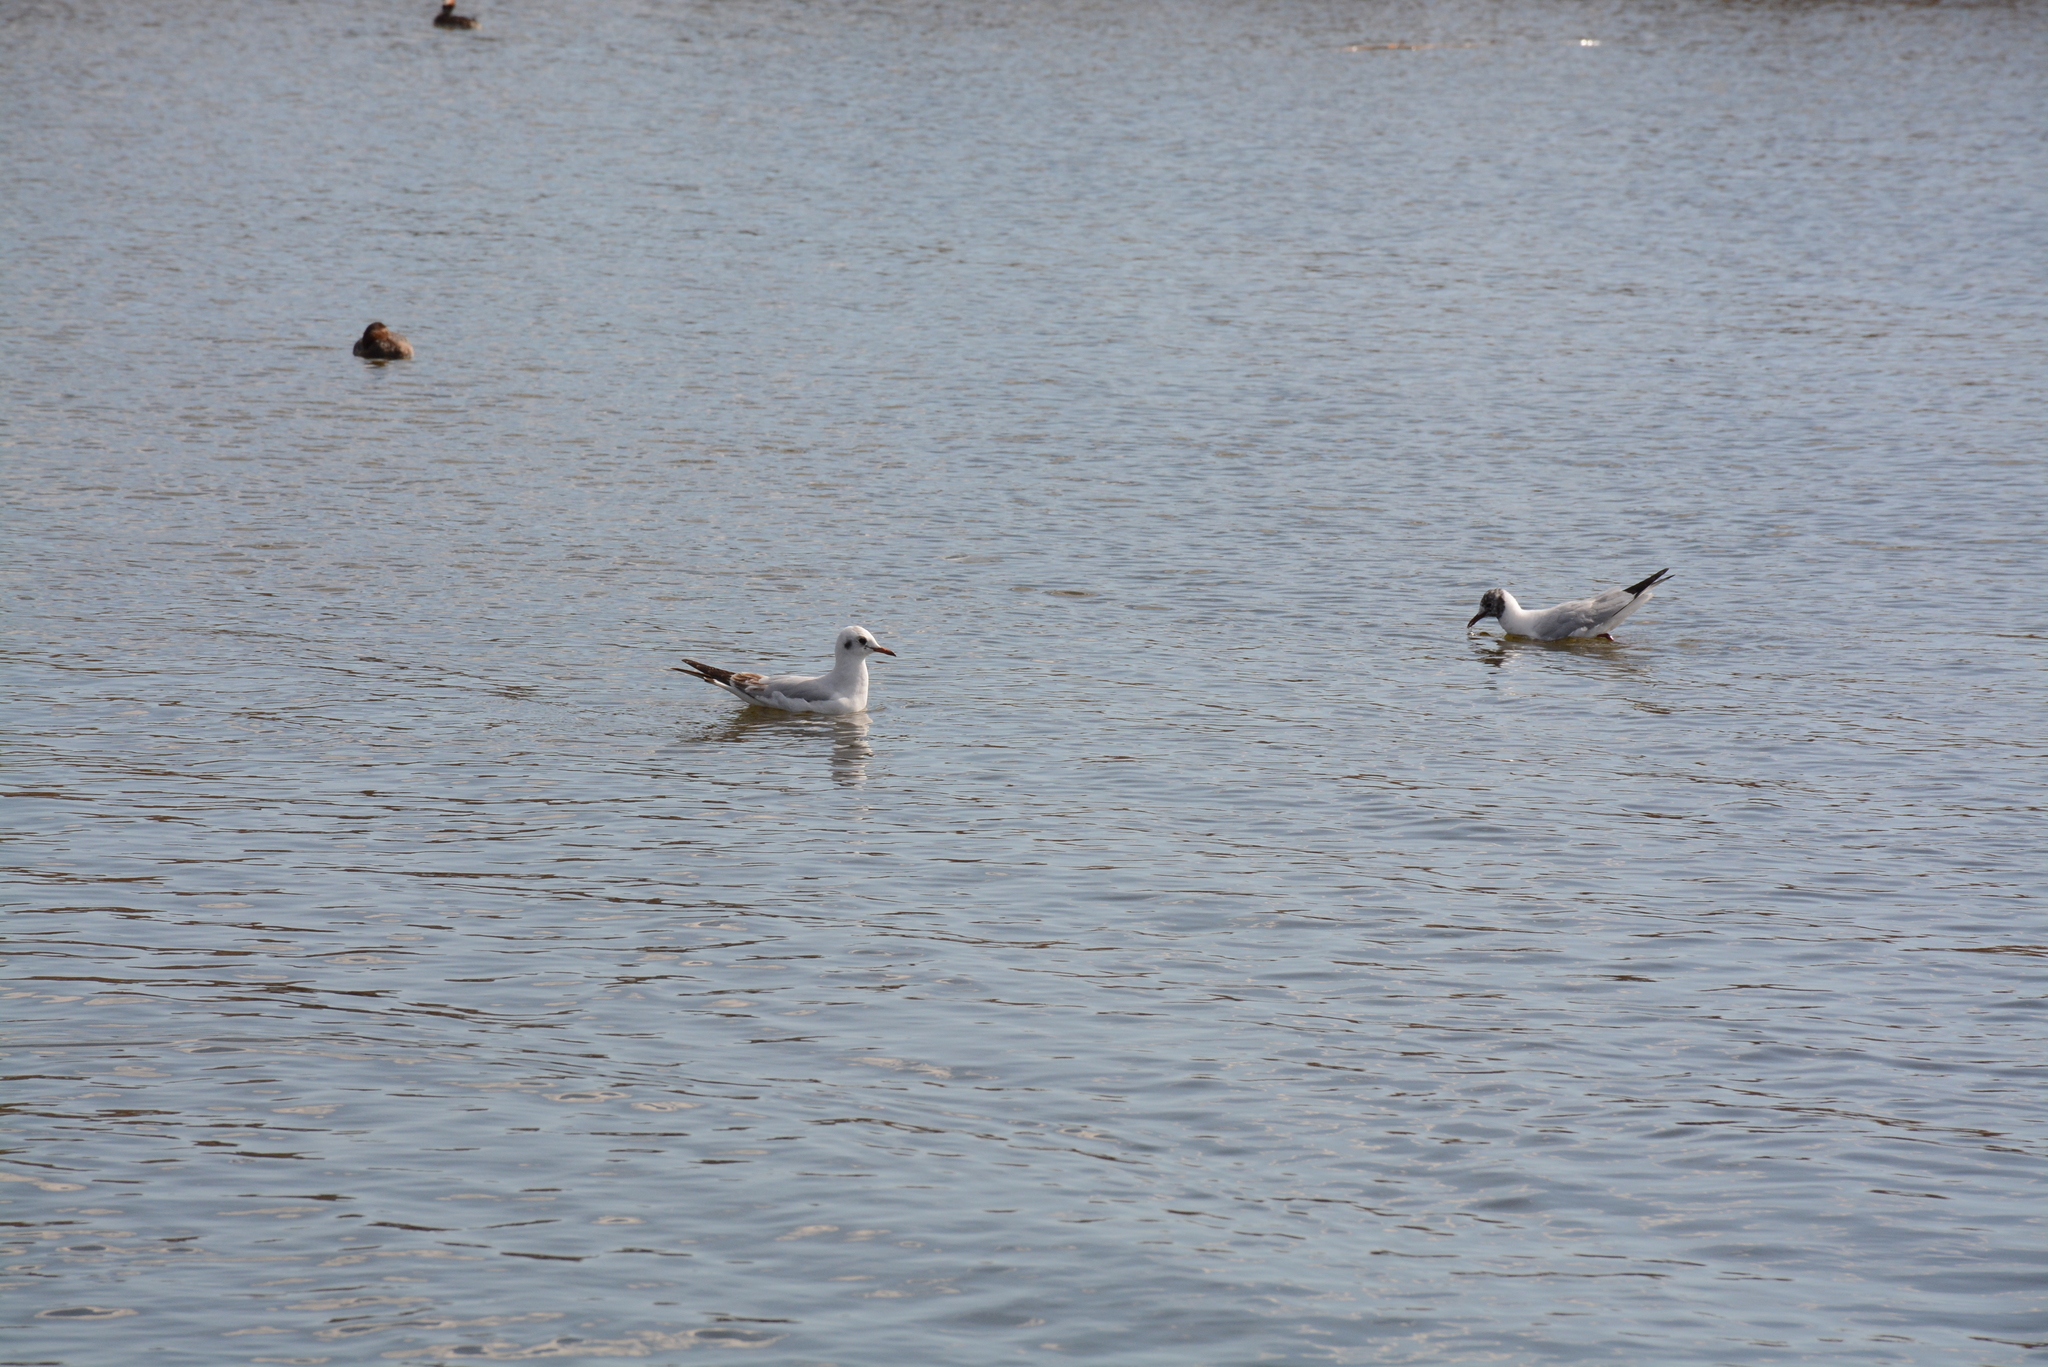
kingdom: Animalia
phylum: Chordata
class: Aves
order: Charadriiformes
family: Laridae
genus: Chroicocephalus
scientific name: Chroicocephalus ridibundus
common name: Black-headed gull
